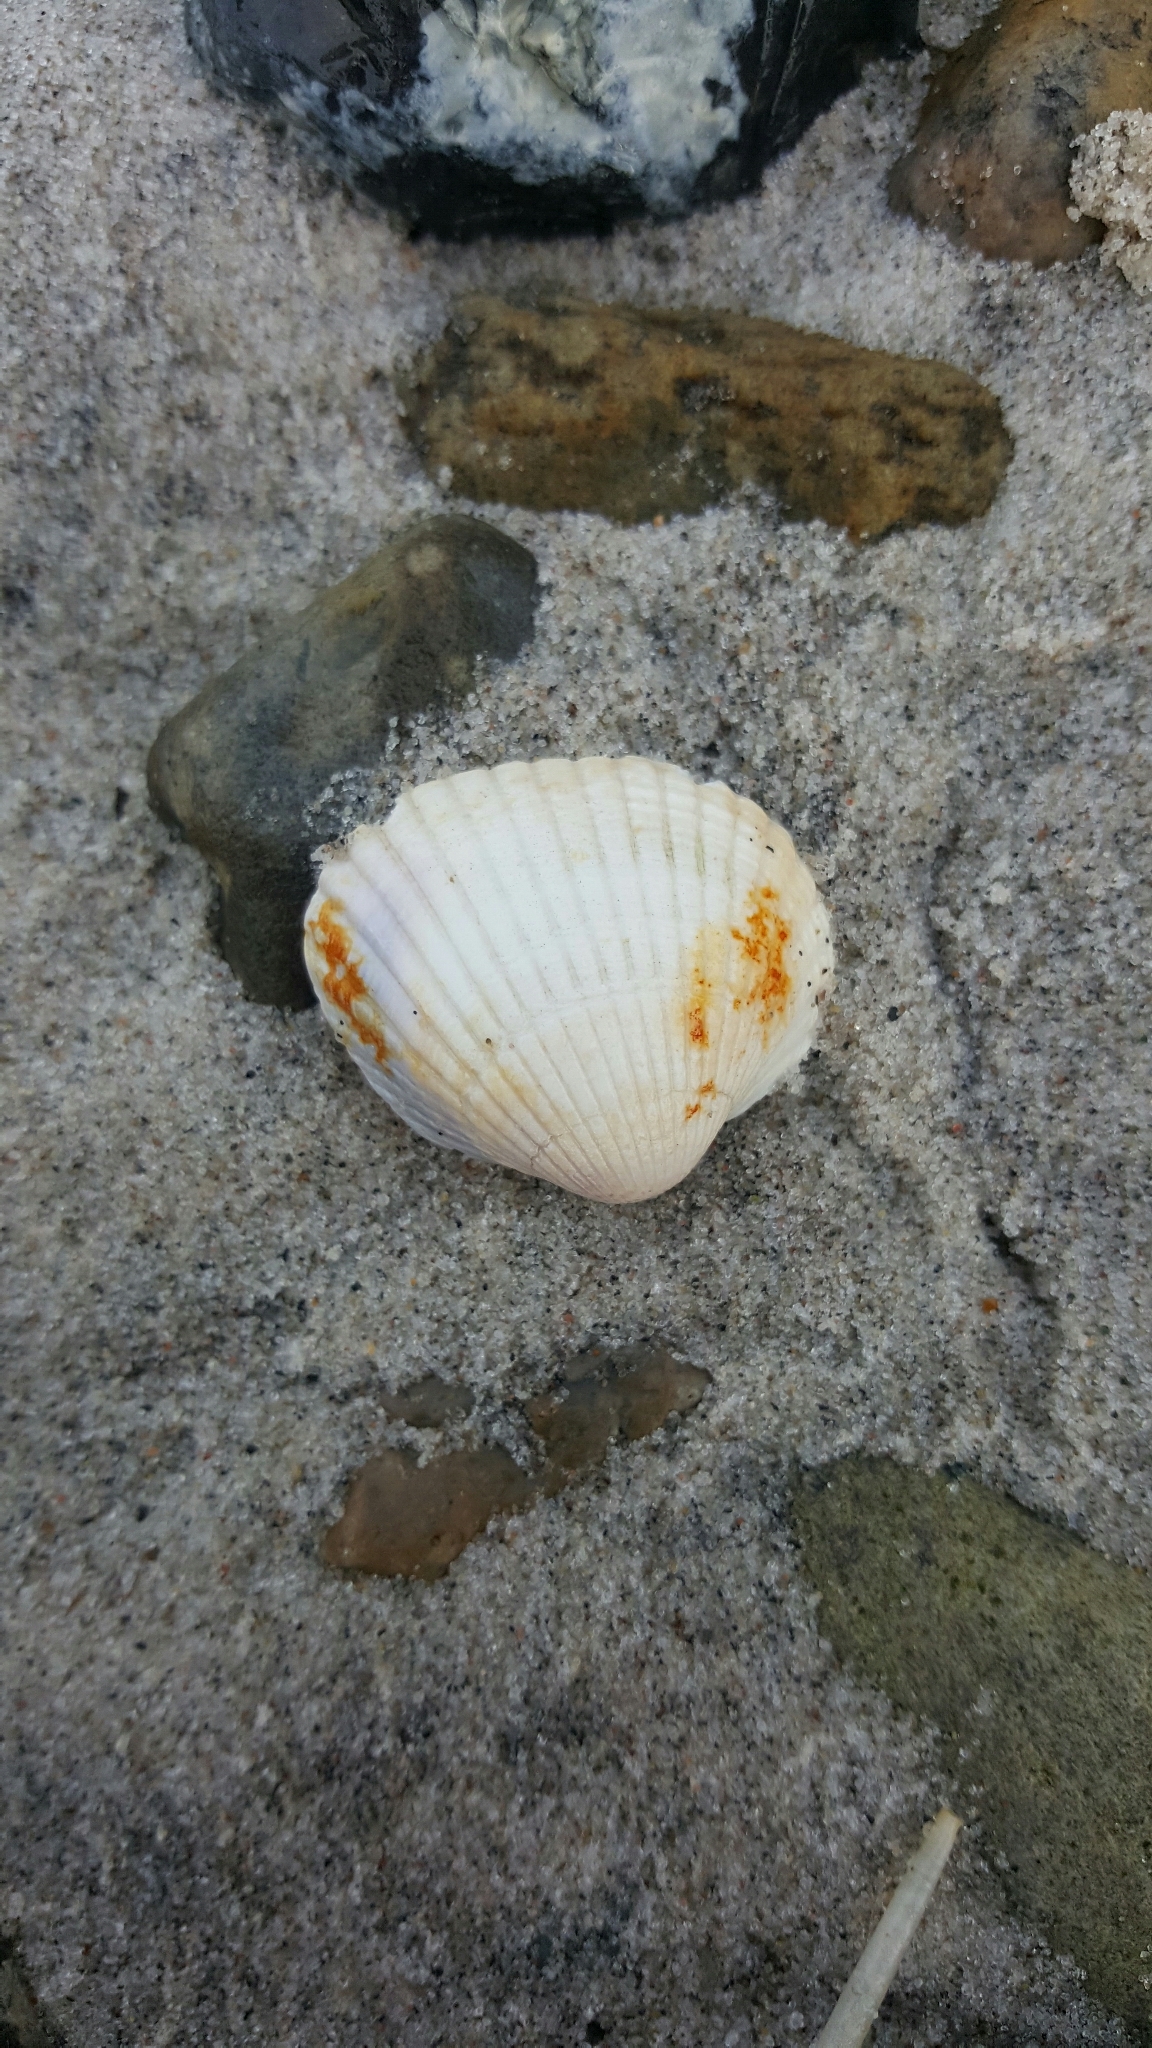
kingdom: Animalia
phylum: Mollusca
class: Bivalvia
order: Cardiida
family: Cardiidae
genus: Cerastoderma
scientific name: Cerastoderma edule
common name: Common cockle
